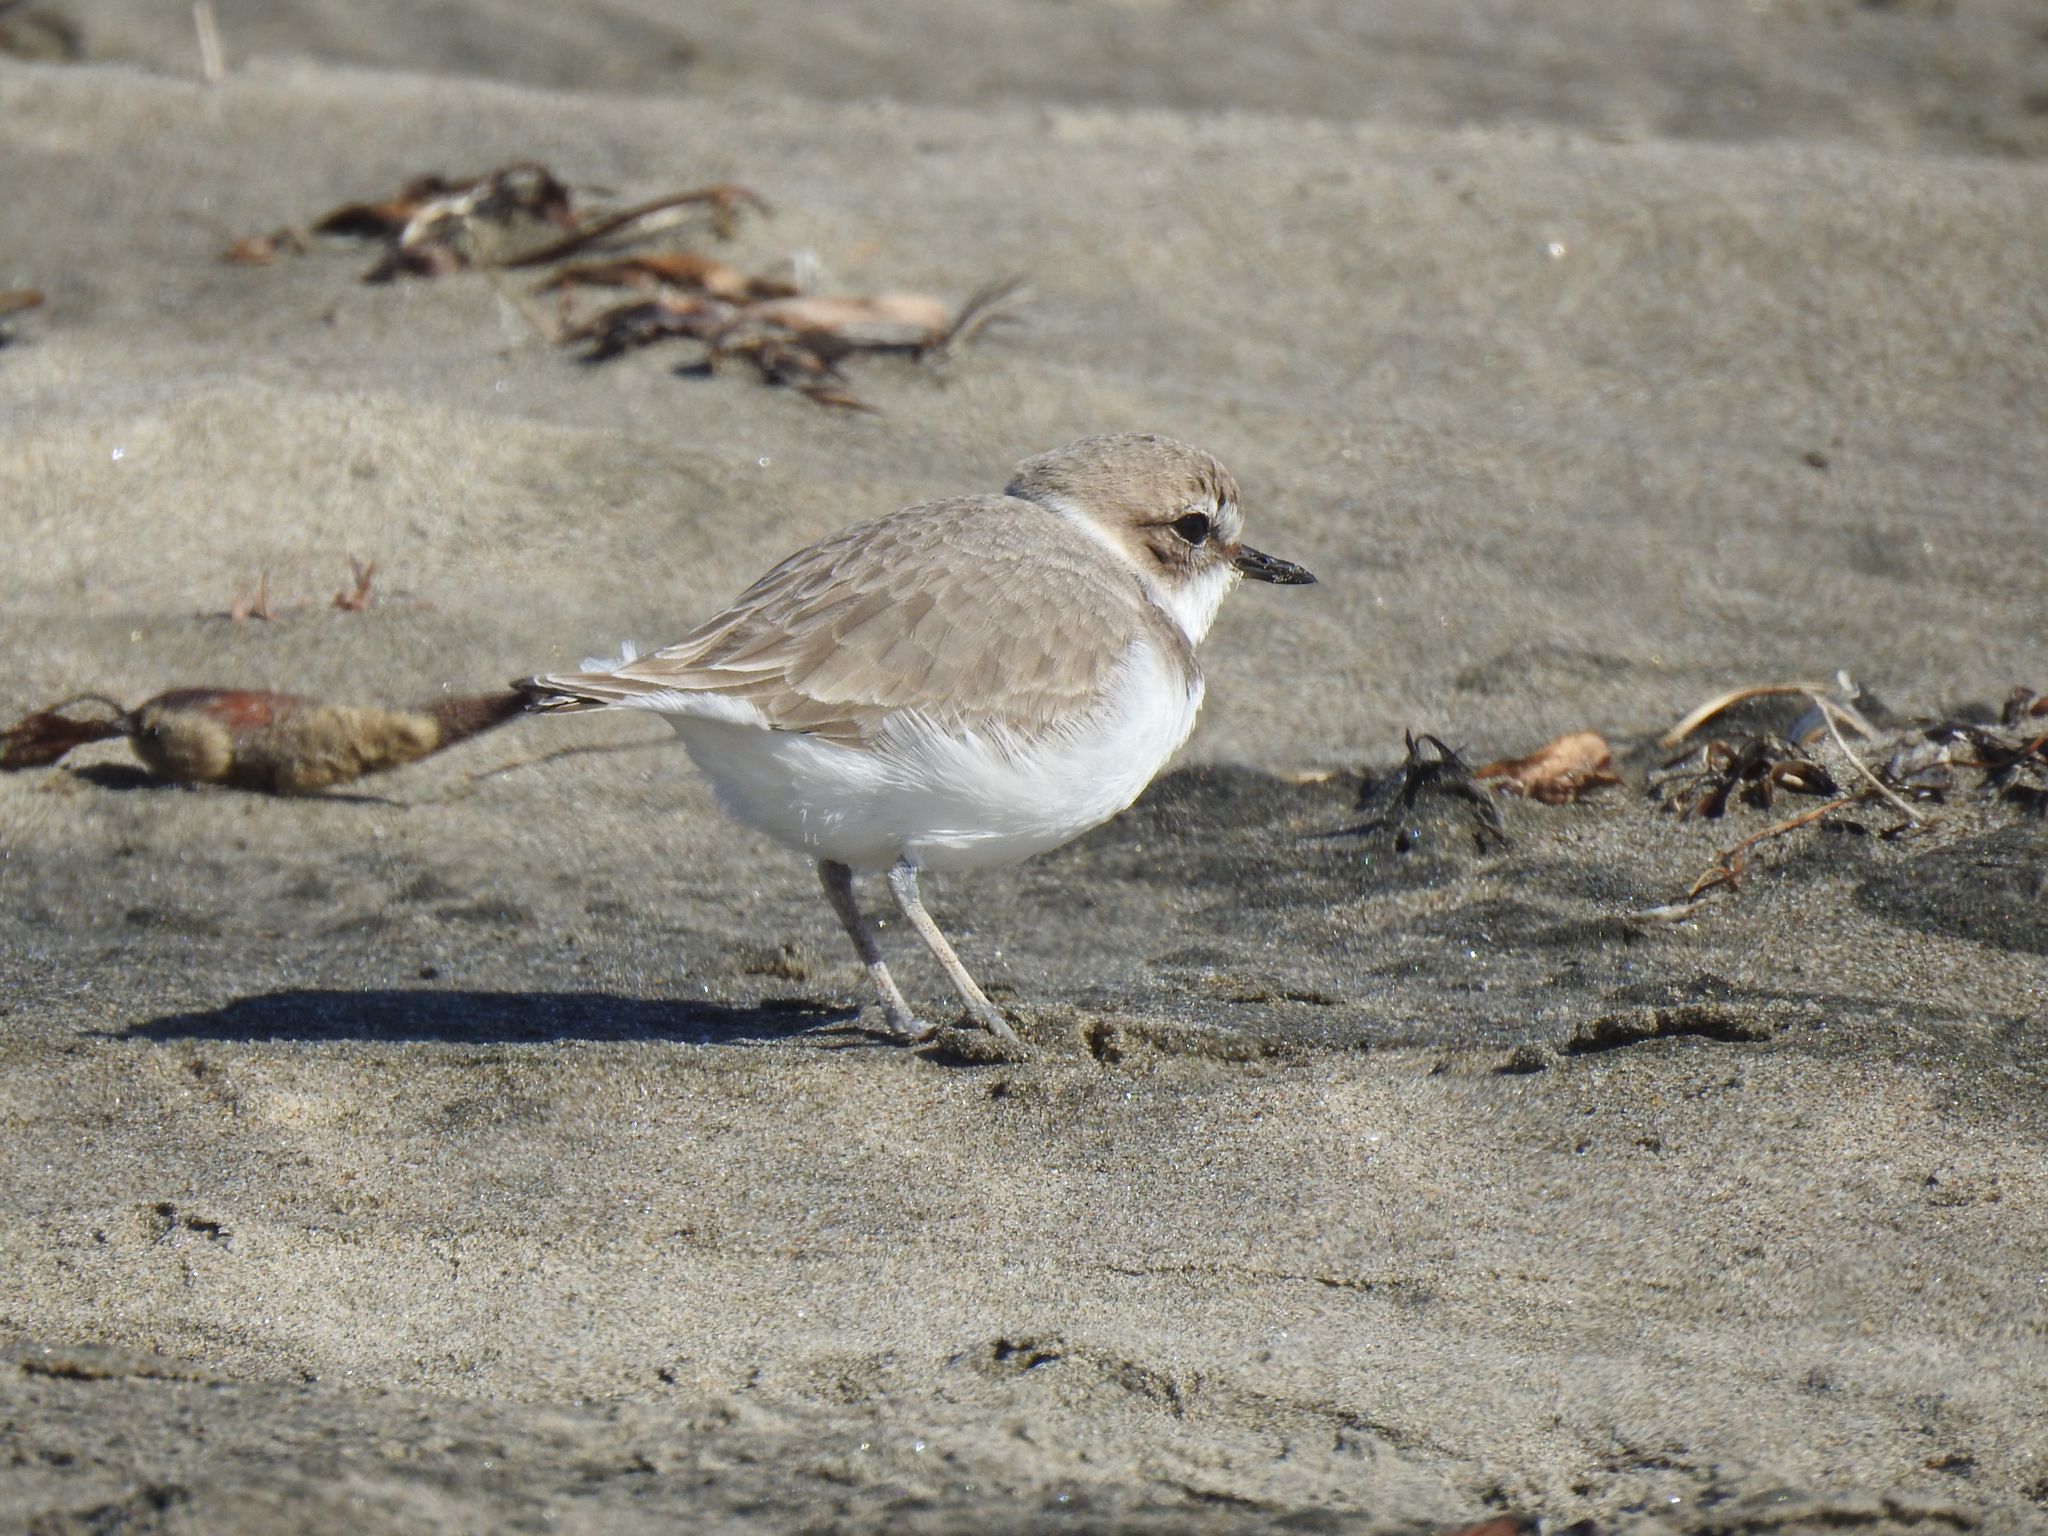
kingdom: Animalia
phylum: Chordata
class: Aves
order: Charadriiformes
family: Charadriidae
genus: Anarhynchus
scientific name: Anarhynchus
